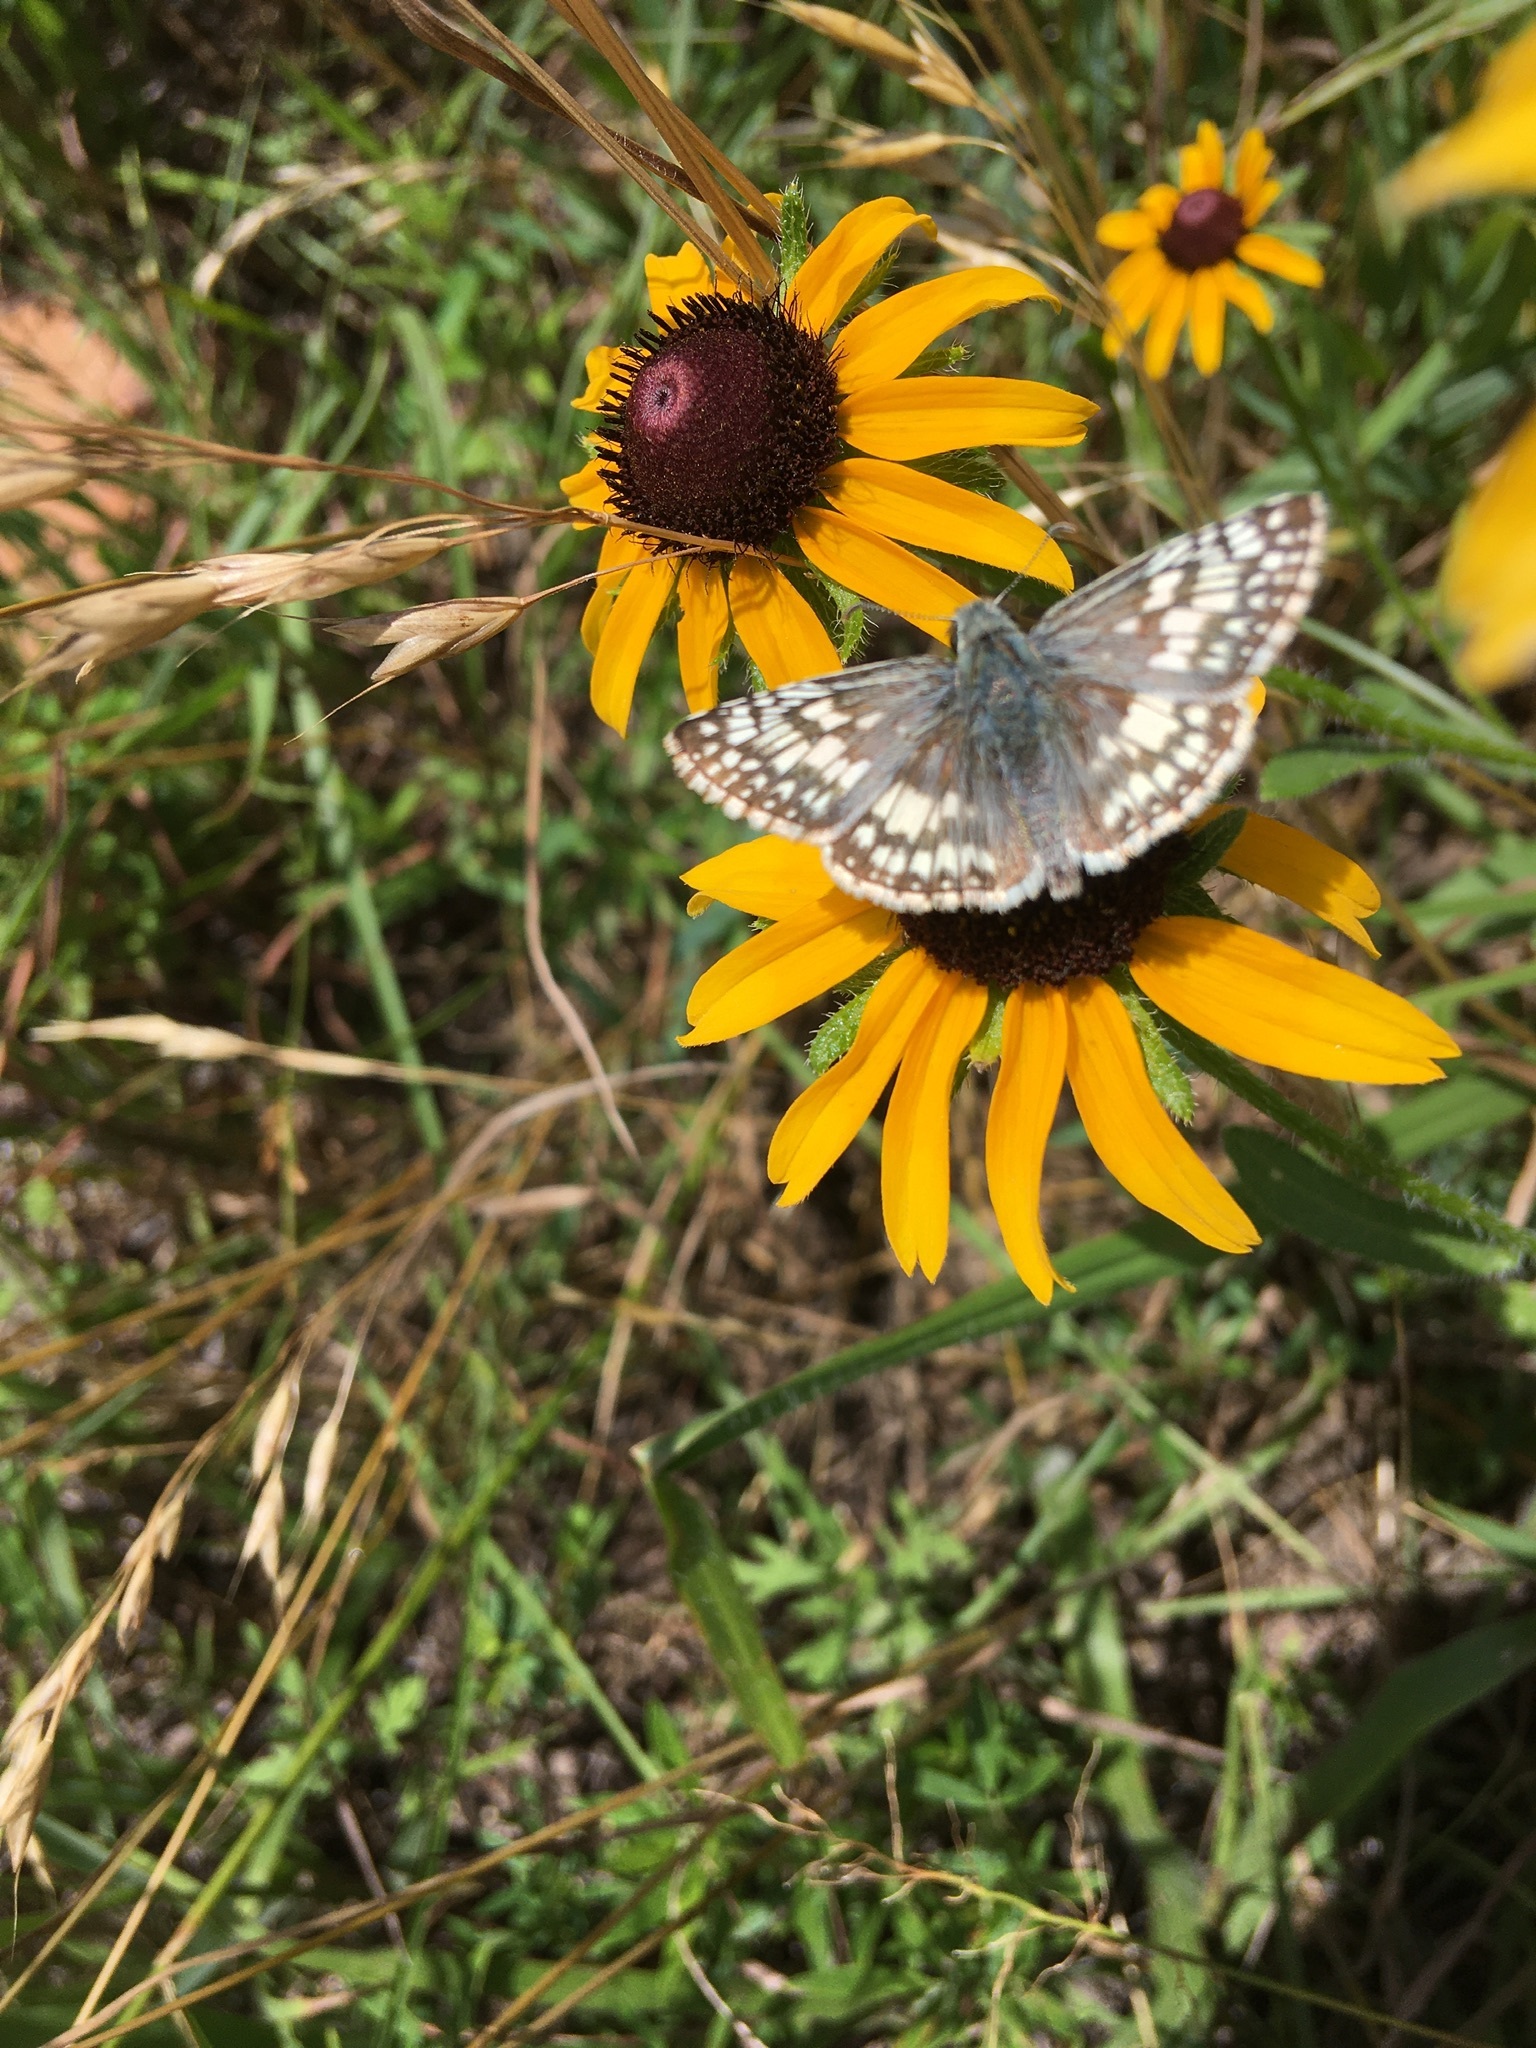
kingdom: Animalia
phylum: Arthropoda
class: Insecta
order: Lepidoptera
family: Hesperiidae
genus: Burnsius
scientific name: Burnsius communis
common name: Common checkered-skipper
